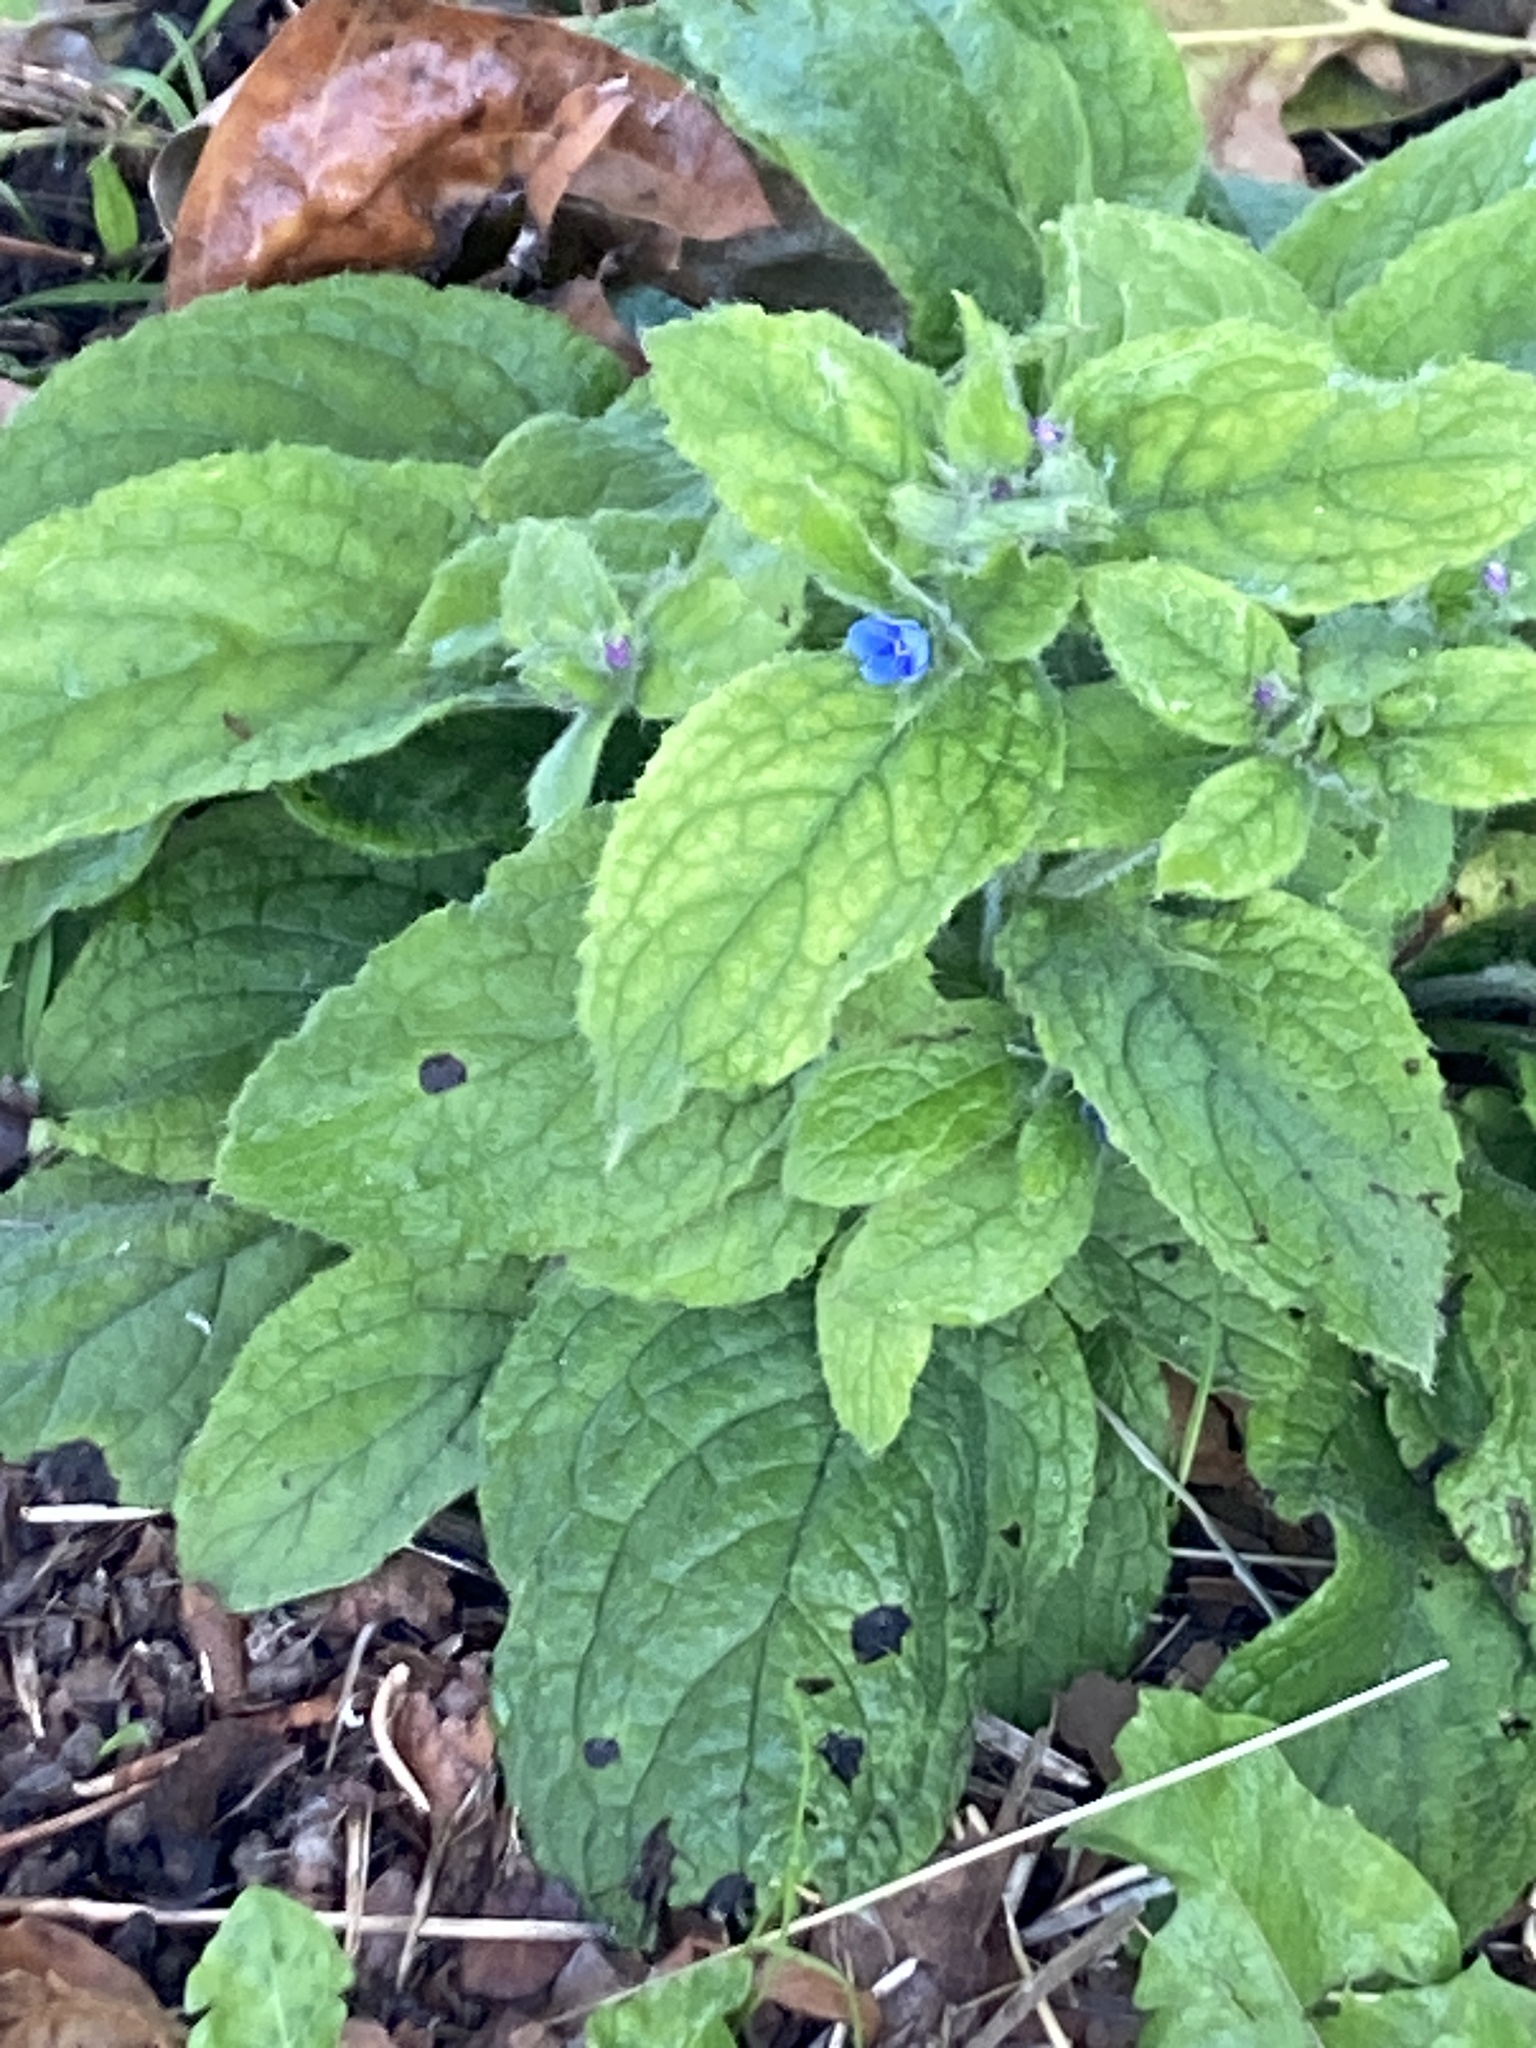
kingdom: Plantae
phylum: Tracheophyta
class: Magnoliopsida
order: Boraginales
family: Boraginaceae
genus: Pentaglottis
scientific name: Pentaglottis sempervirens
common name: Green alkanet
